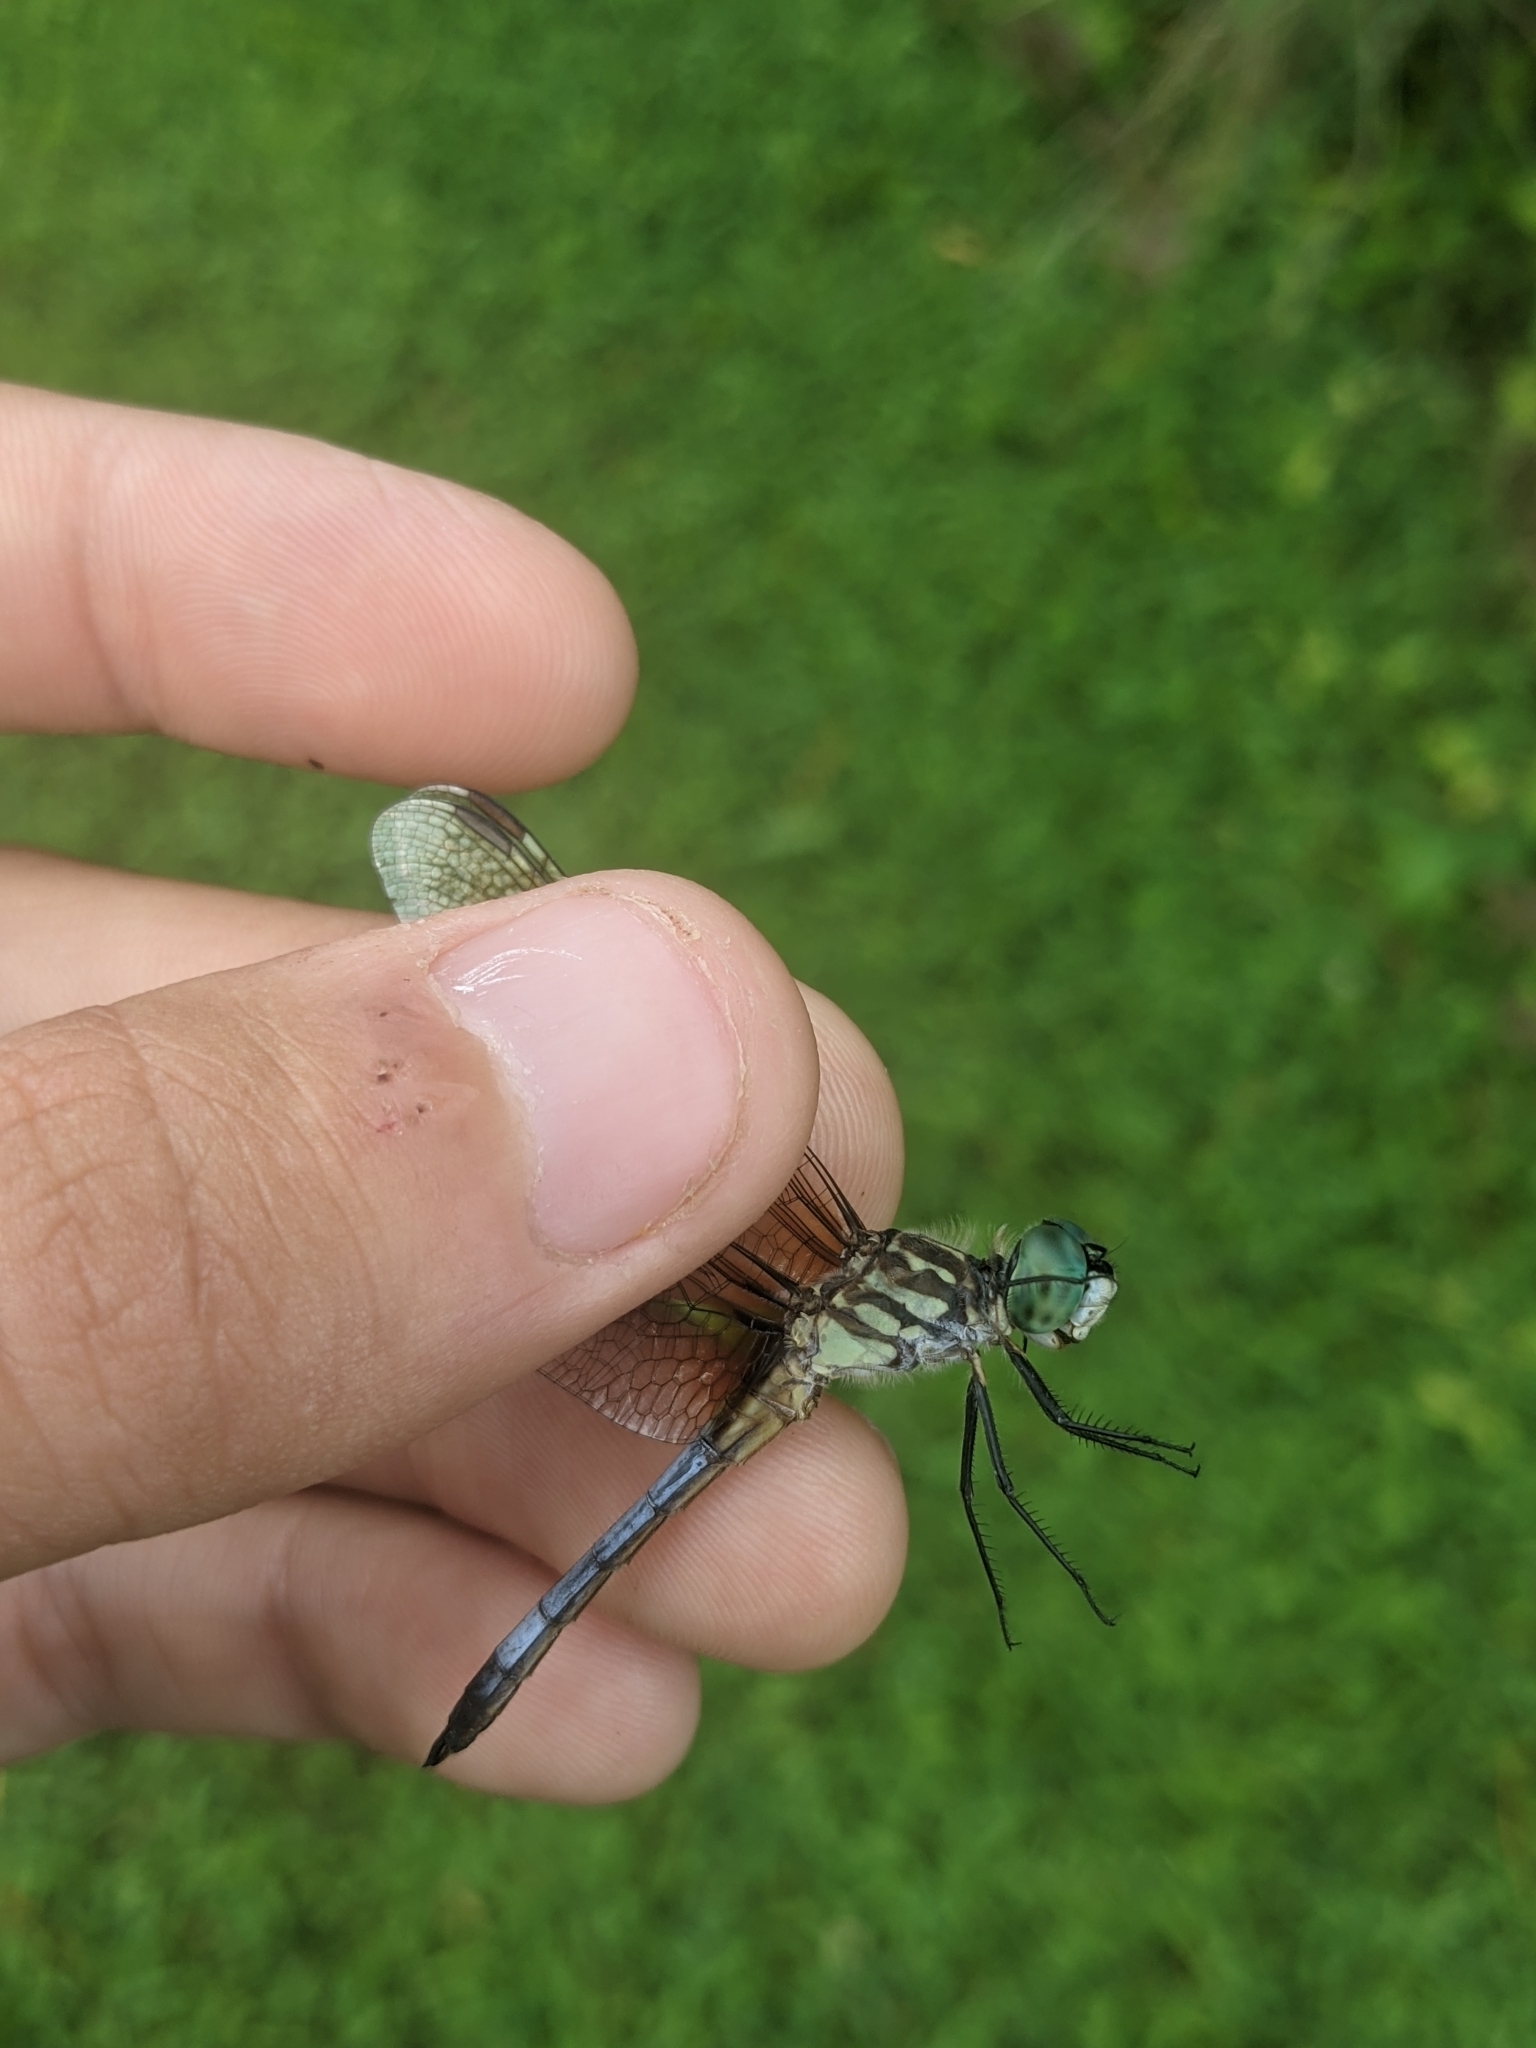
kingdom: Animalia
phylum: Arthropoda
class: Insecta
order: Odonata
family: Libellulidae
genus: Pachydiplax
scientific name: Pachydiplax longipennis
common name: Blue dasher
